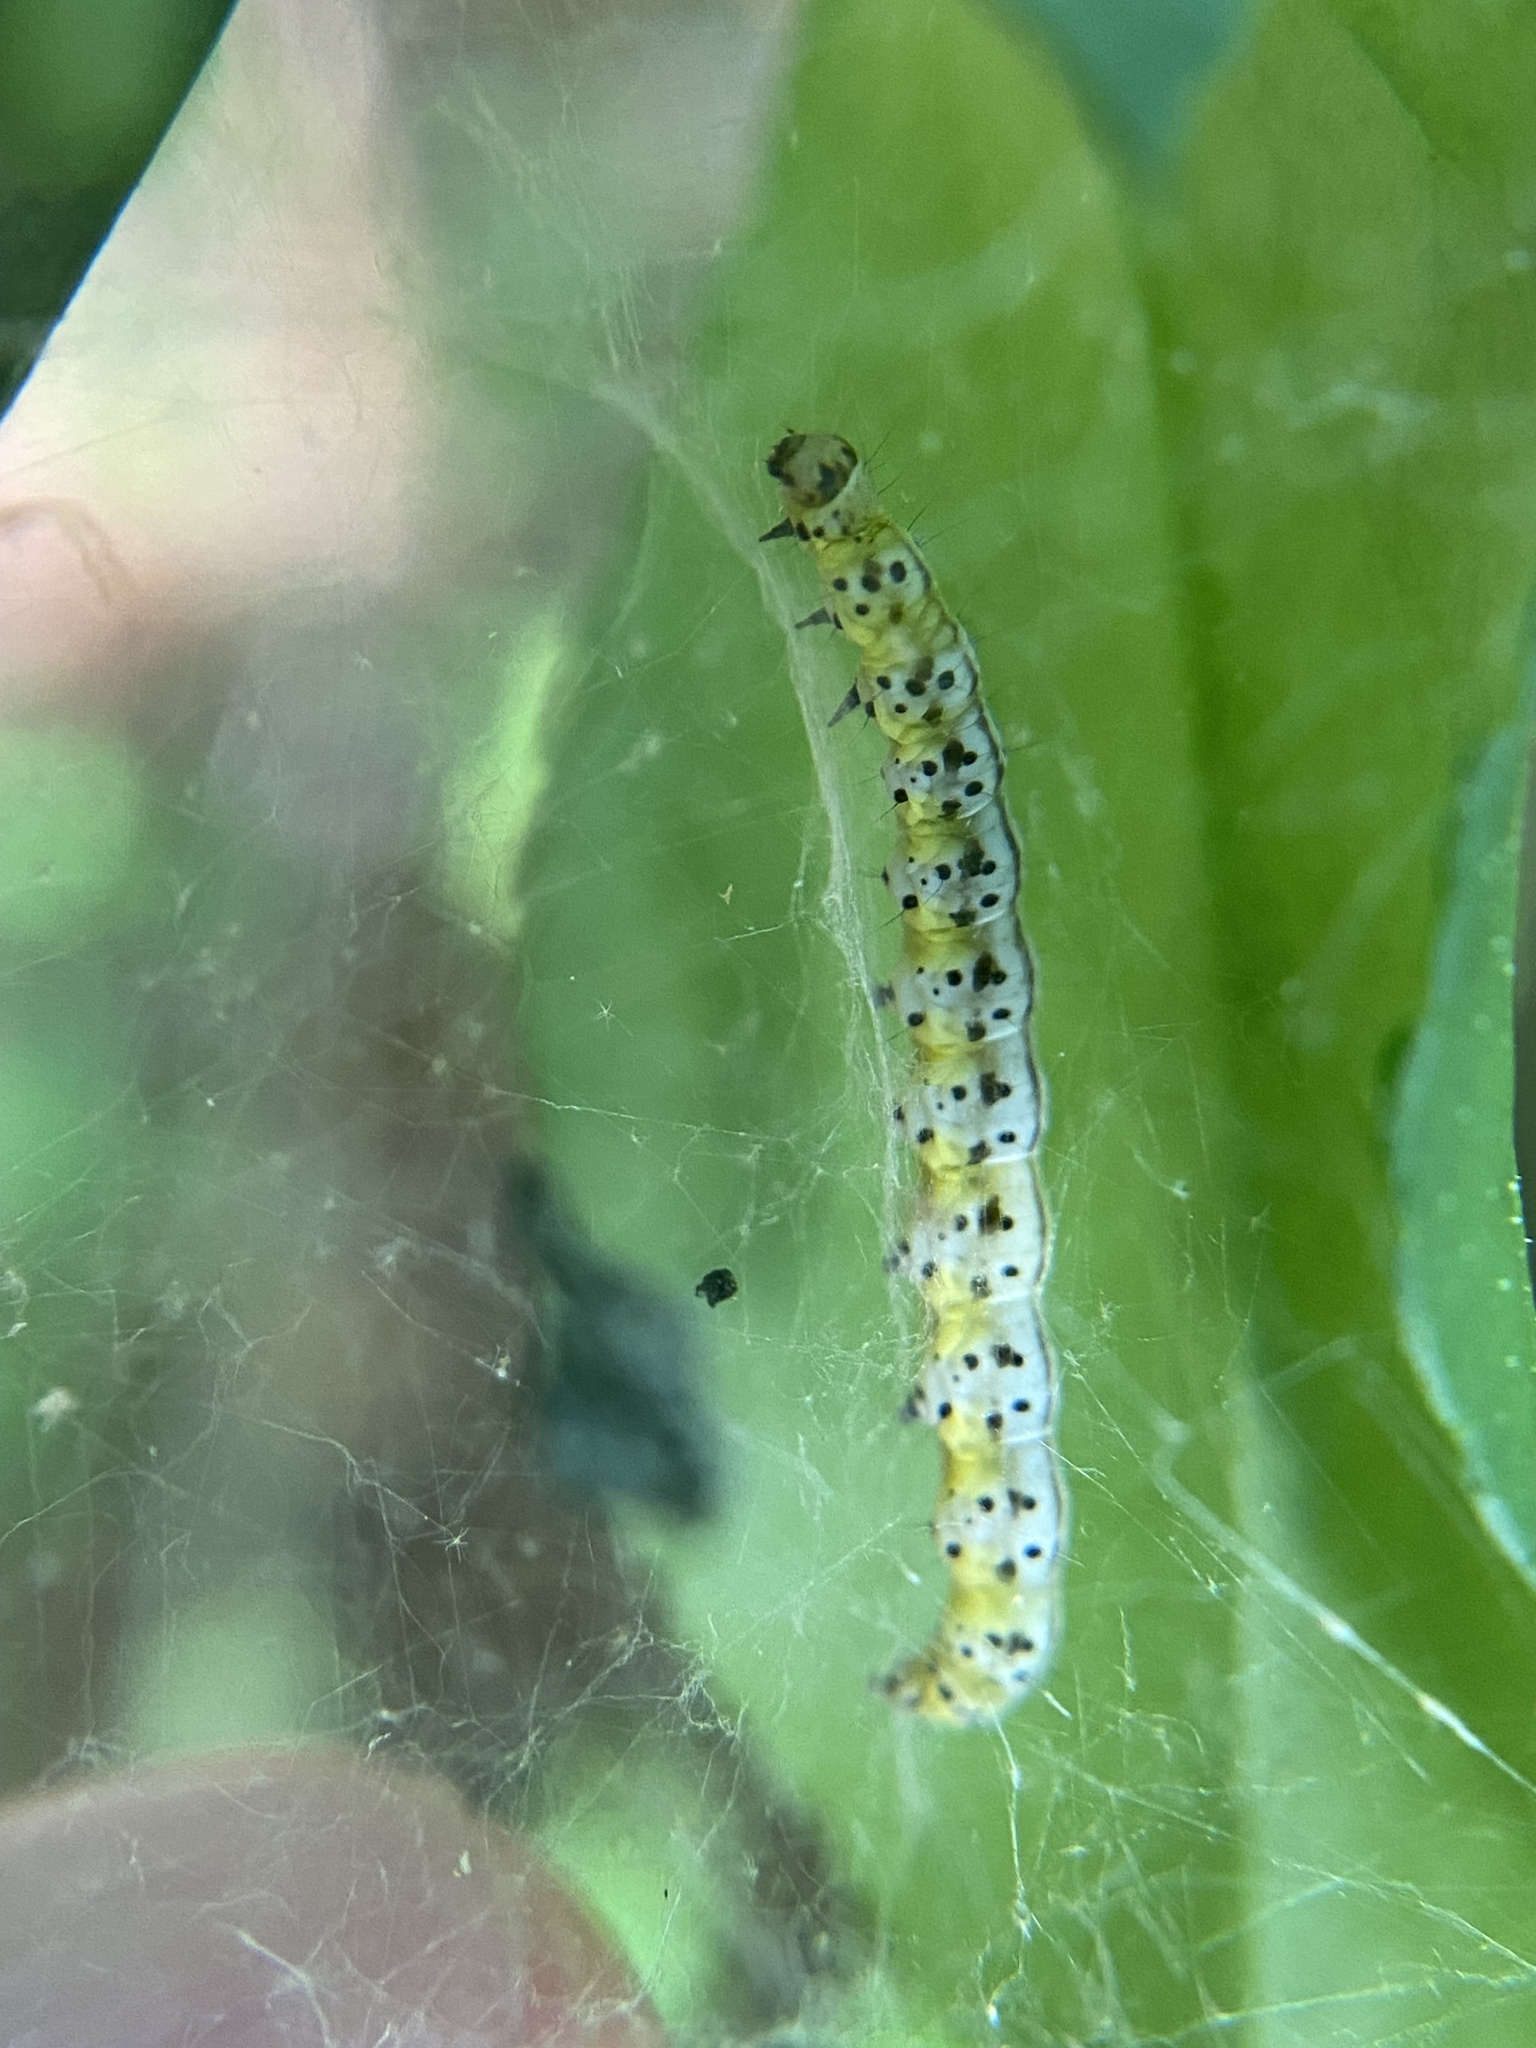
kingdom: Animalia
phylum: Arthropoda
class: Insecta
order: Lepidoptera
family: Yponomeutidae
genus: Yponomeuta
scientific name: Yponomeuta multipunctella
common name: American ermine moth
